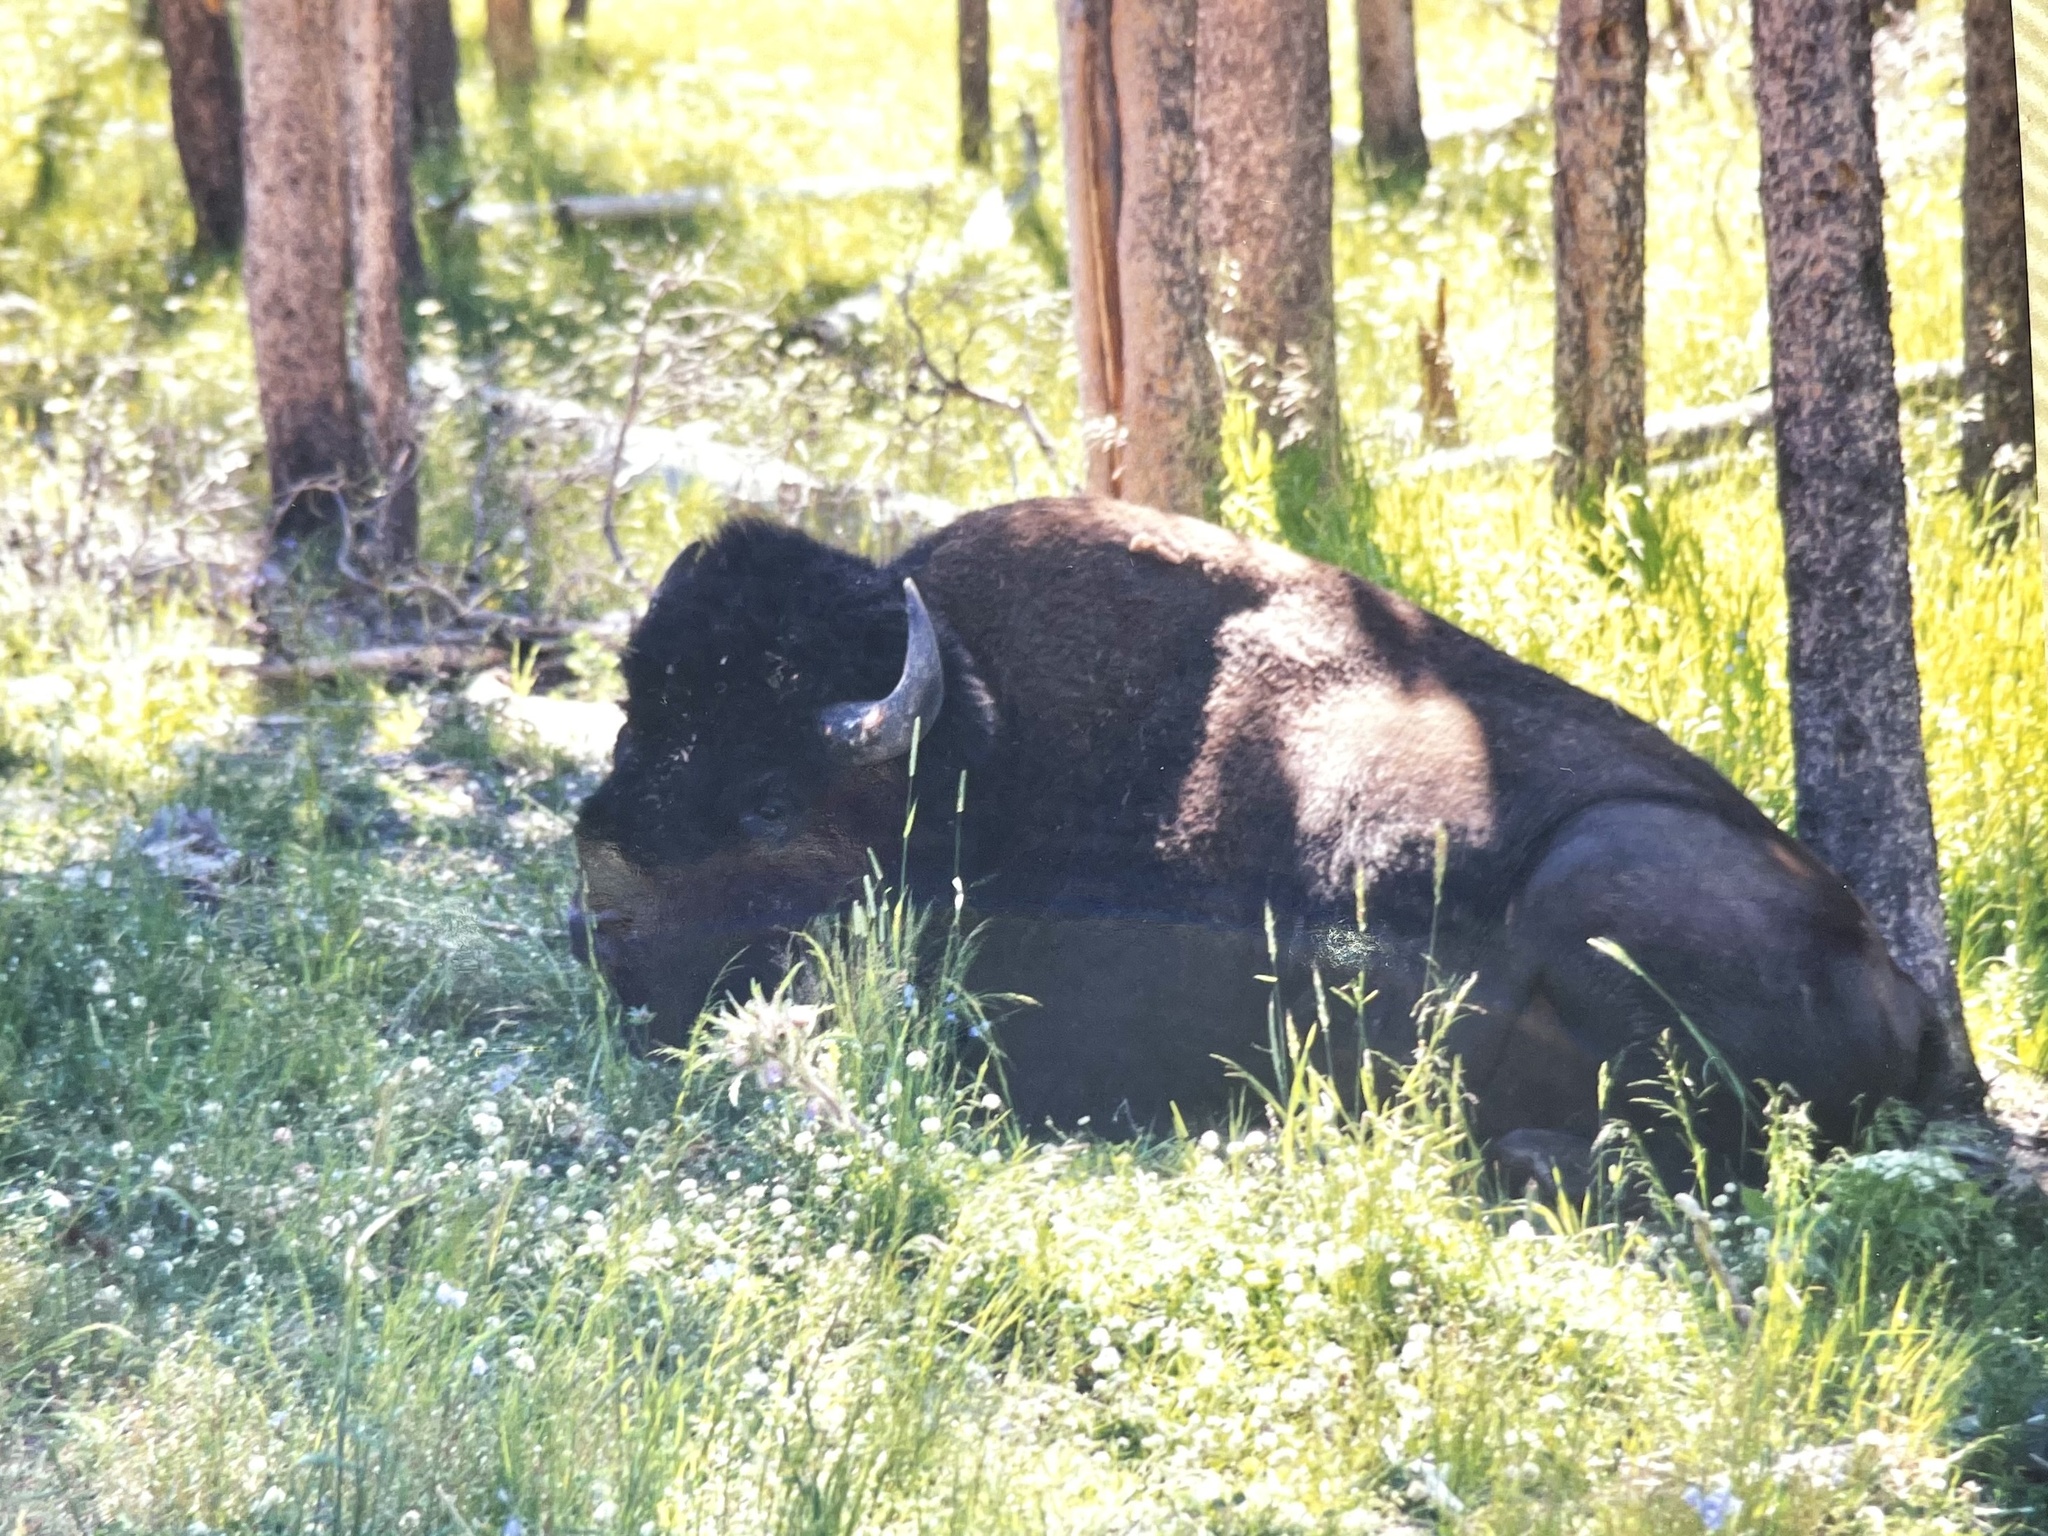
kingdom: Animalia
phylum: Chordata
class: Mammalia
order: Artiodactyla
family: Bovidae
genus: Bison
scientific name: Bison bison
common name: American bison
